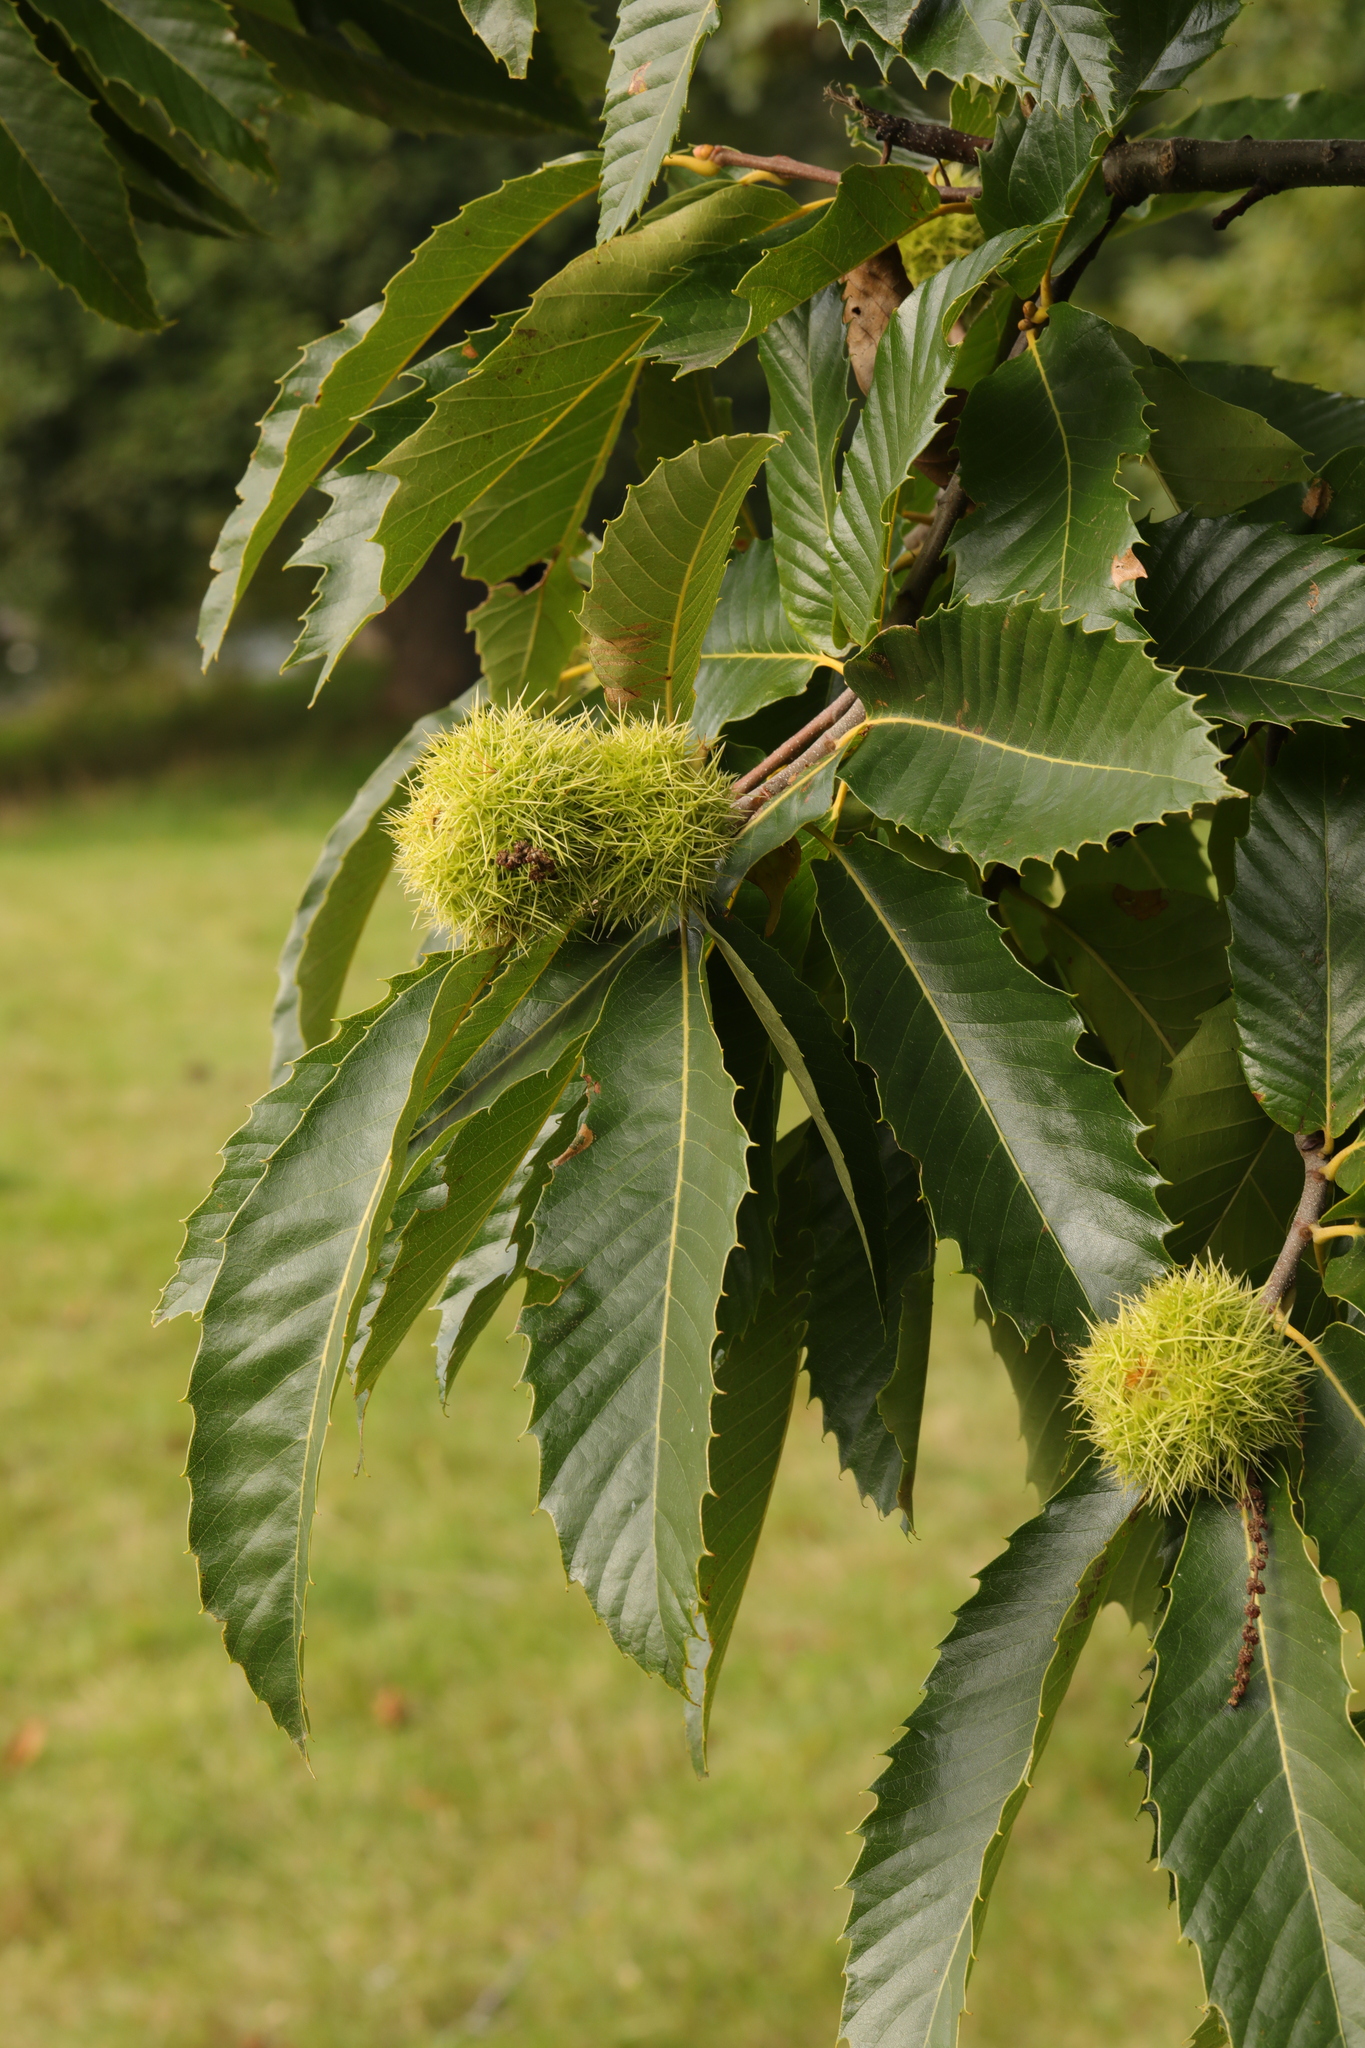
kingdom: Plantae
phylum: Tracheophyta
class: Magnoliopsida
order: Fagales
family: Fagaceae
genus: Castanea
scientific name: Castanea sativa
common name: Sweet chestnut
